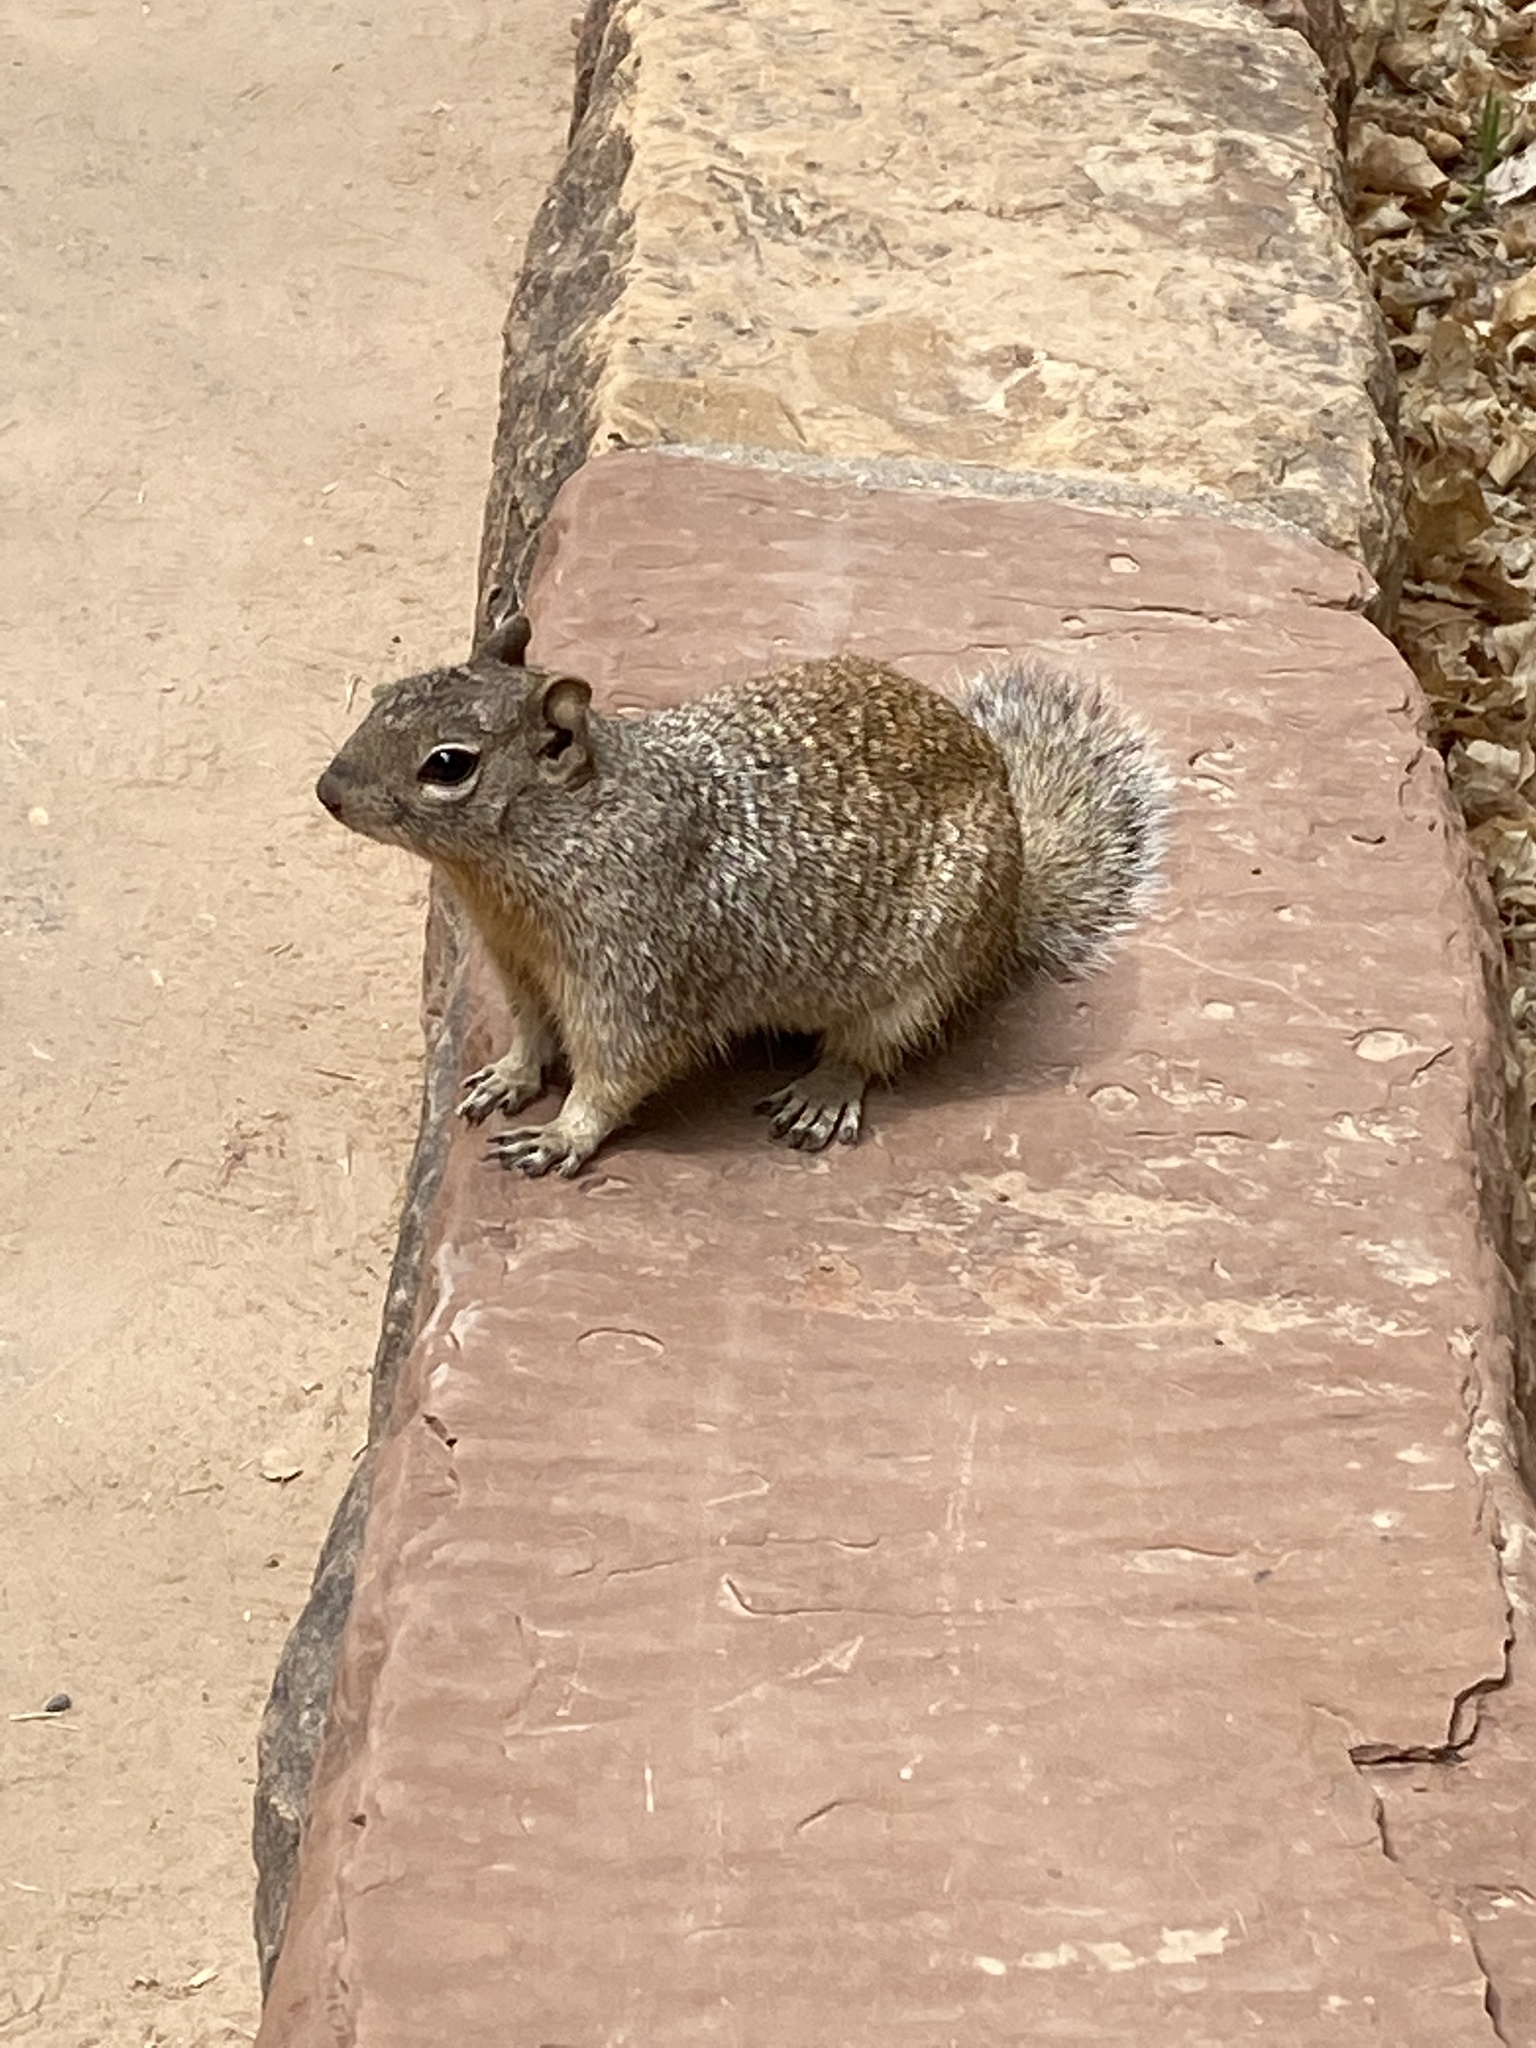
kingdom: Animalia
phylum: Chordata
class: Mammalia
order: Rodentia
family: Sciuridae
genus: Otospermophilus
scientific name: Otospermophilus variegatus
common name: Rock squirrel
